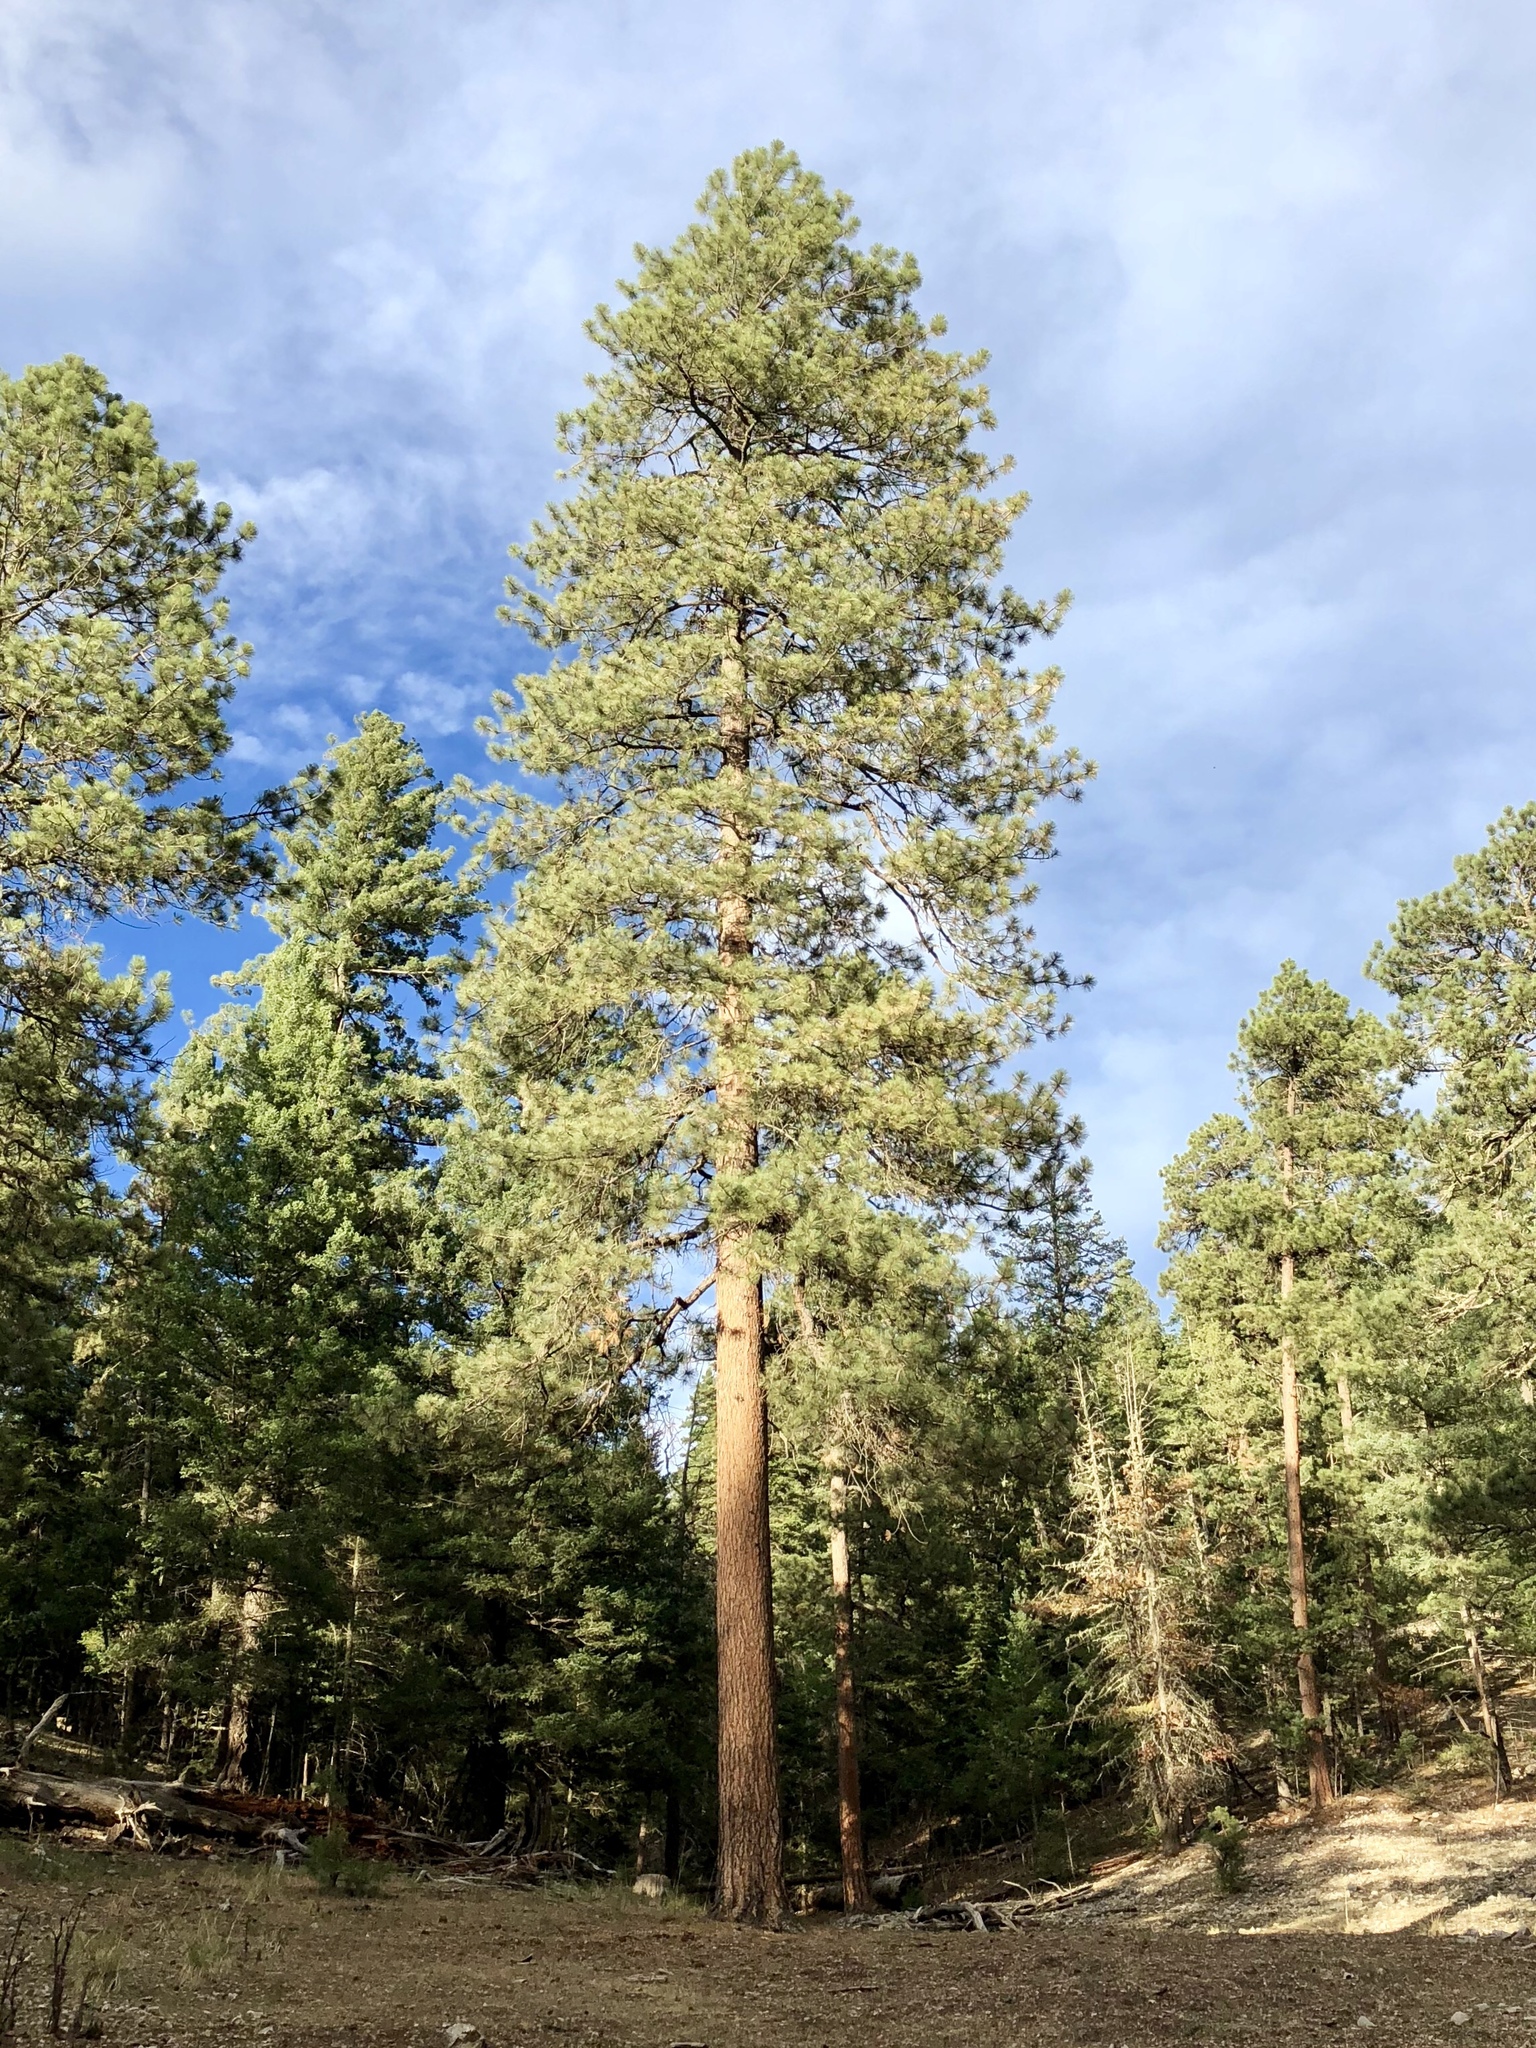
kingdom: Plantae
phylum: Tracheophyta
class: Pinopsida
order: Pinales
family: Pinaceae
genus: Pinus
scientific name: Pinus ponderosa
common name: Western yellow-pine
